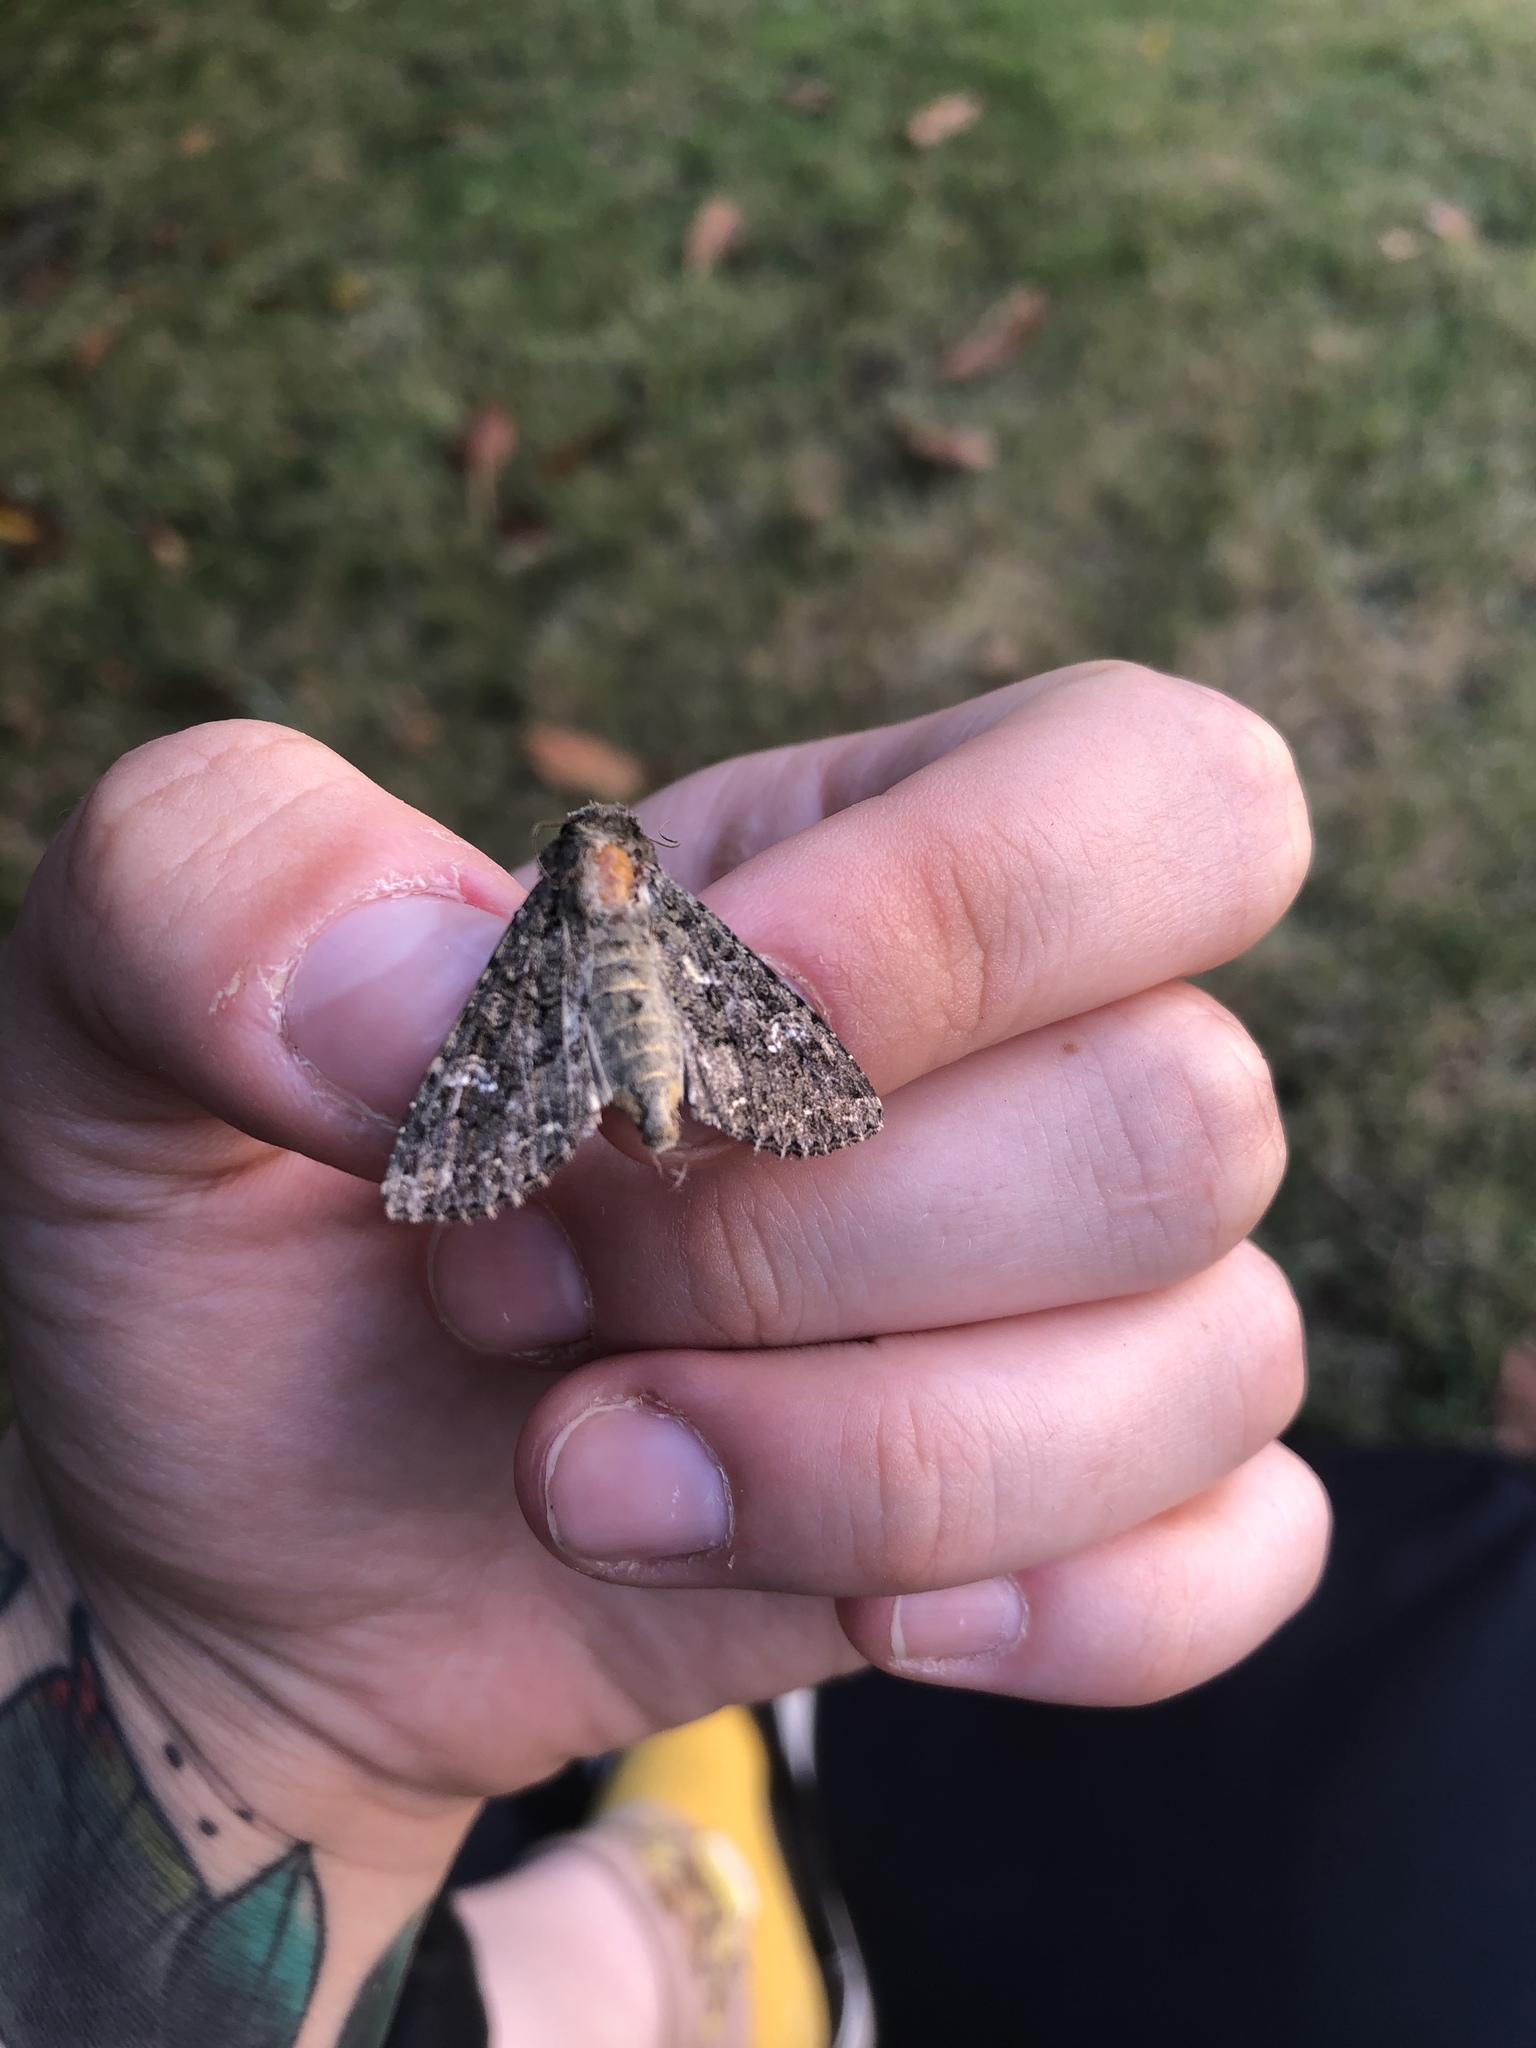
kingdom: Animalia
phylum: Arthropoda
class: Insecta
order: Lepidoptera
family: Noctuidae
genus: Mamestra
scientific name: Mamestra brassicae
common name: Cabbage moth
